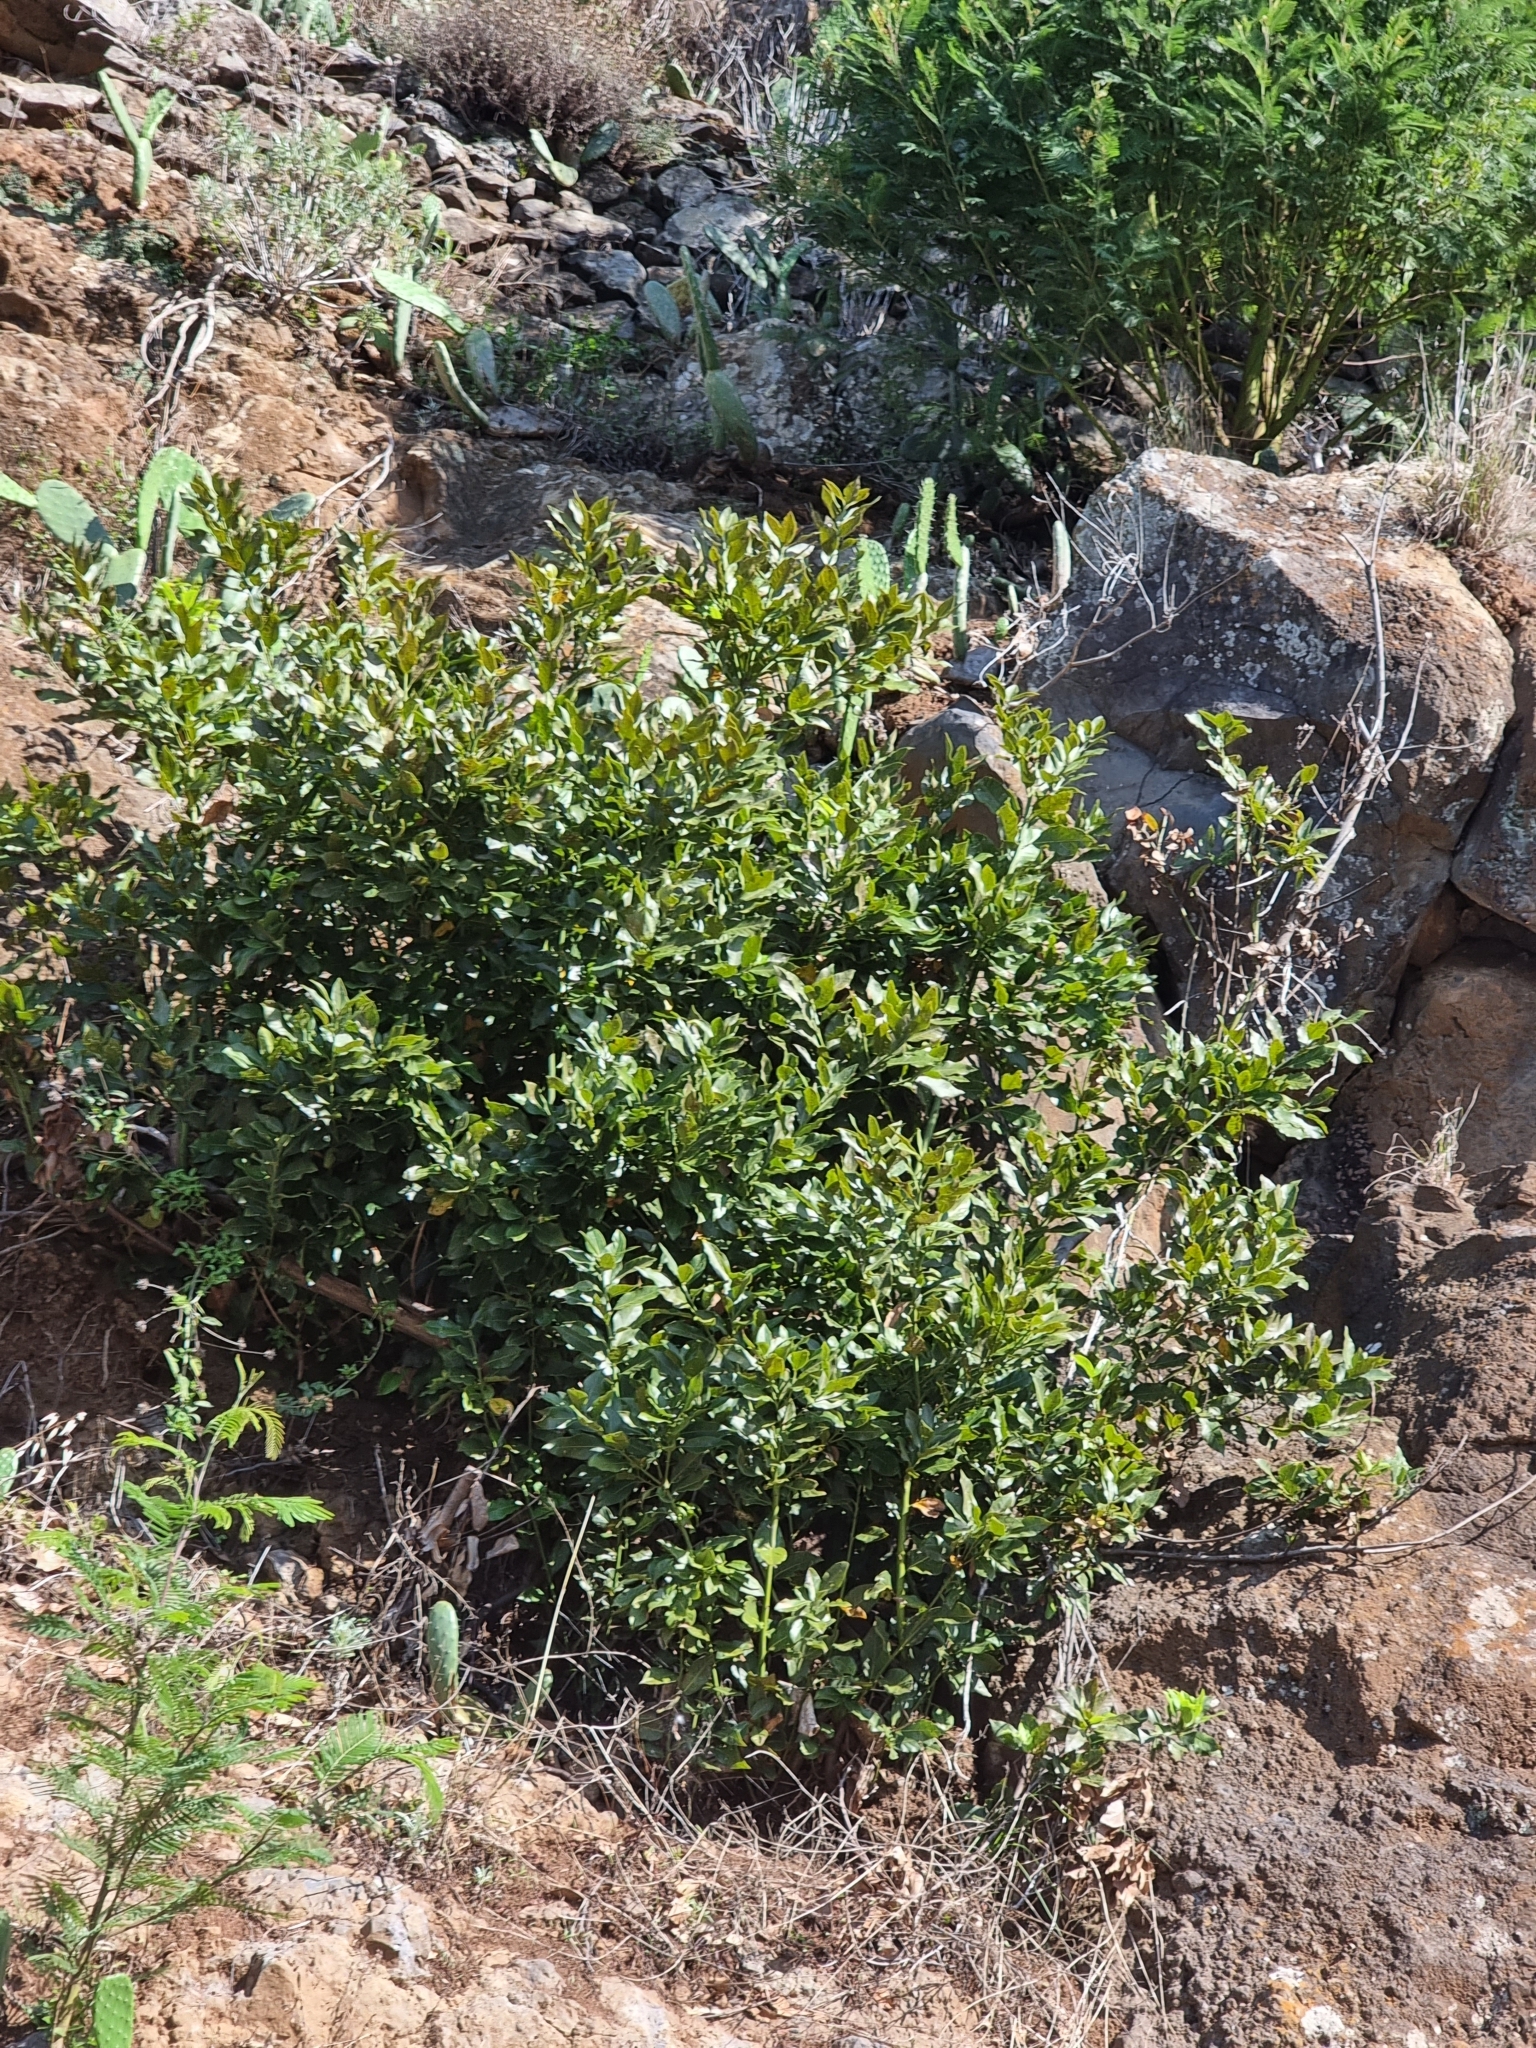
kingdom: Plantae
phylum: Tracheophyta
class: Magnoliopsida
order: Laurales
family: Lauraceae
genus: Laurus
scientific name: Laurus novocanariensis
